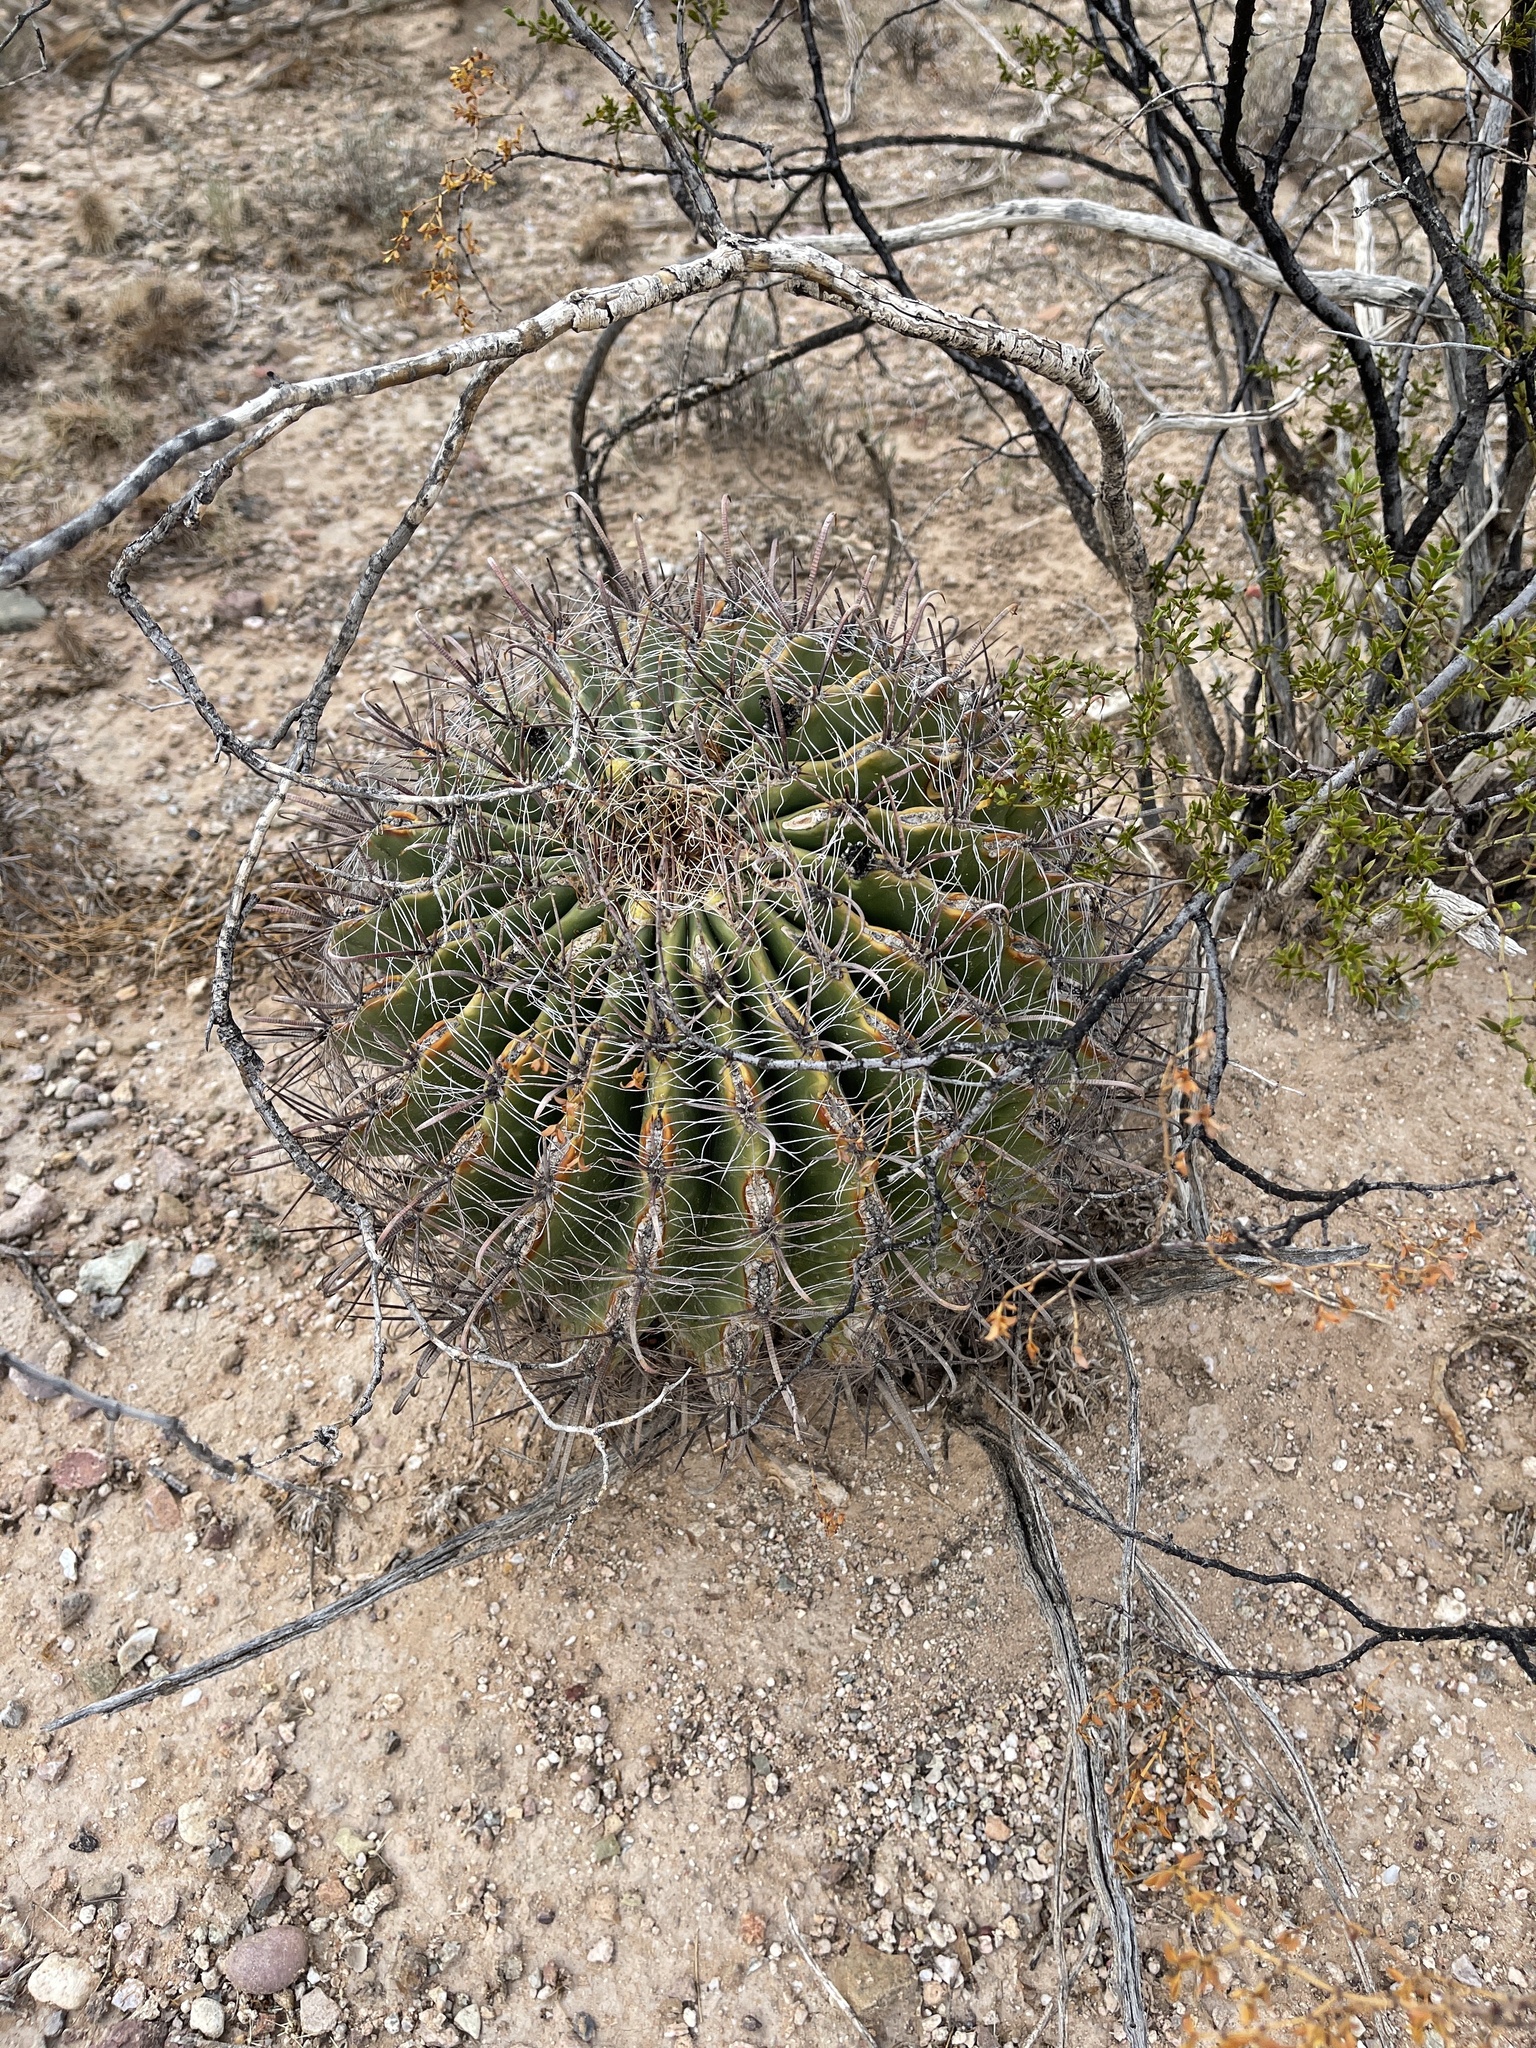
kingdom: Plantae
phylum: Tracheophyta
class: Magnoliopsida
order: Caryophyllales
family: Cactaceae
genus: Ferocactus
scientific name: Ferocactus wislizeni
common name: Candy barrel cactus
